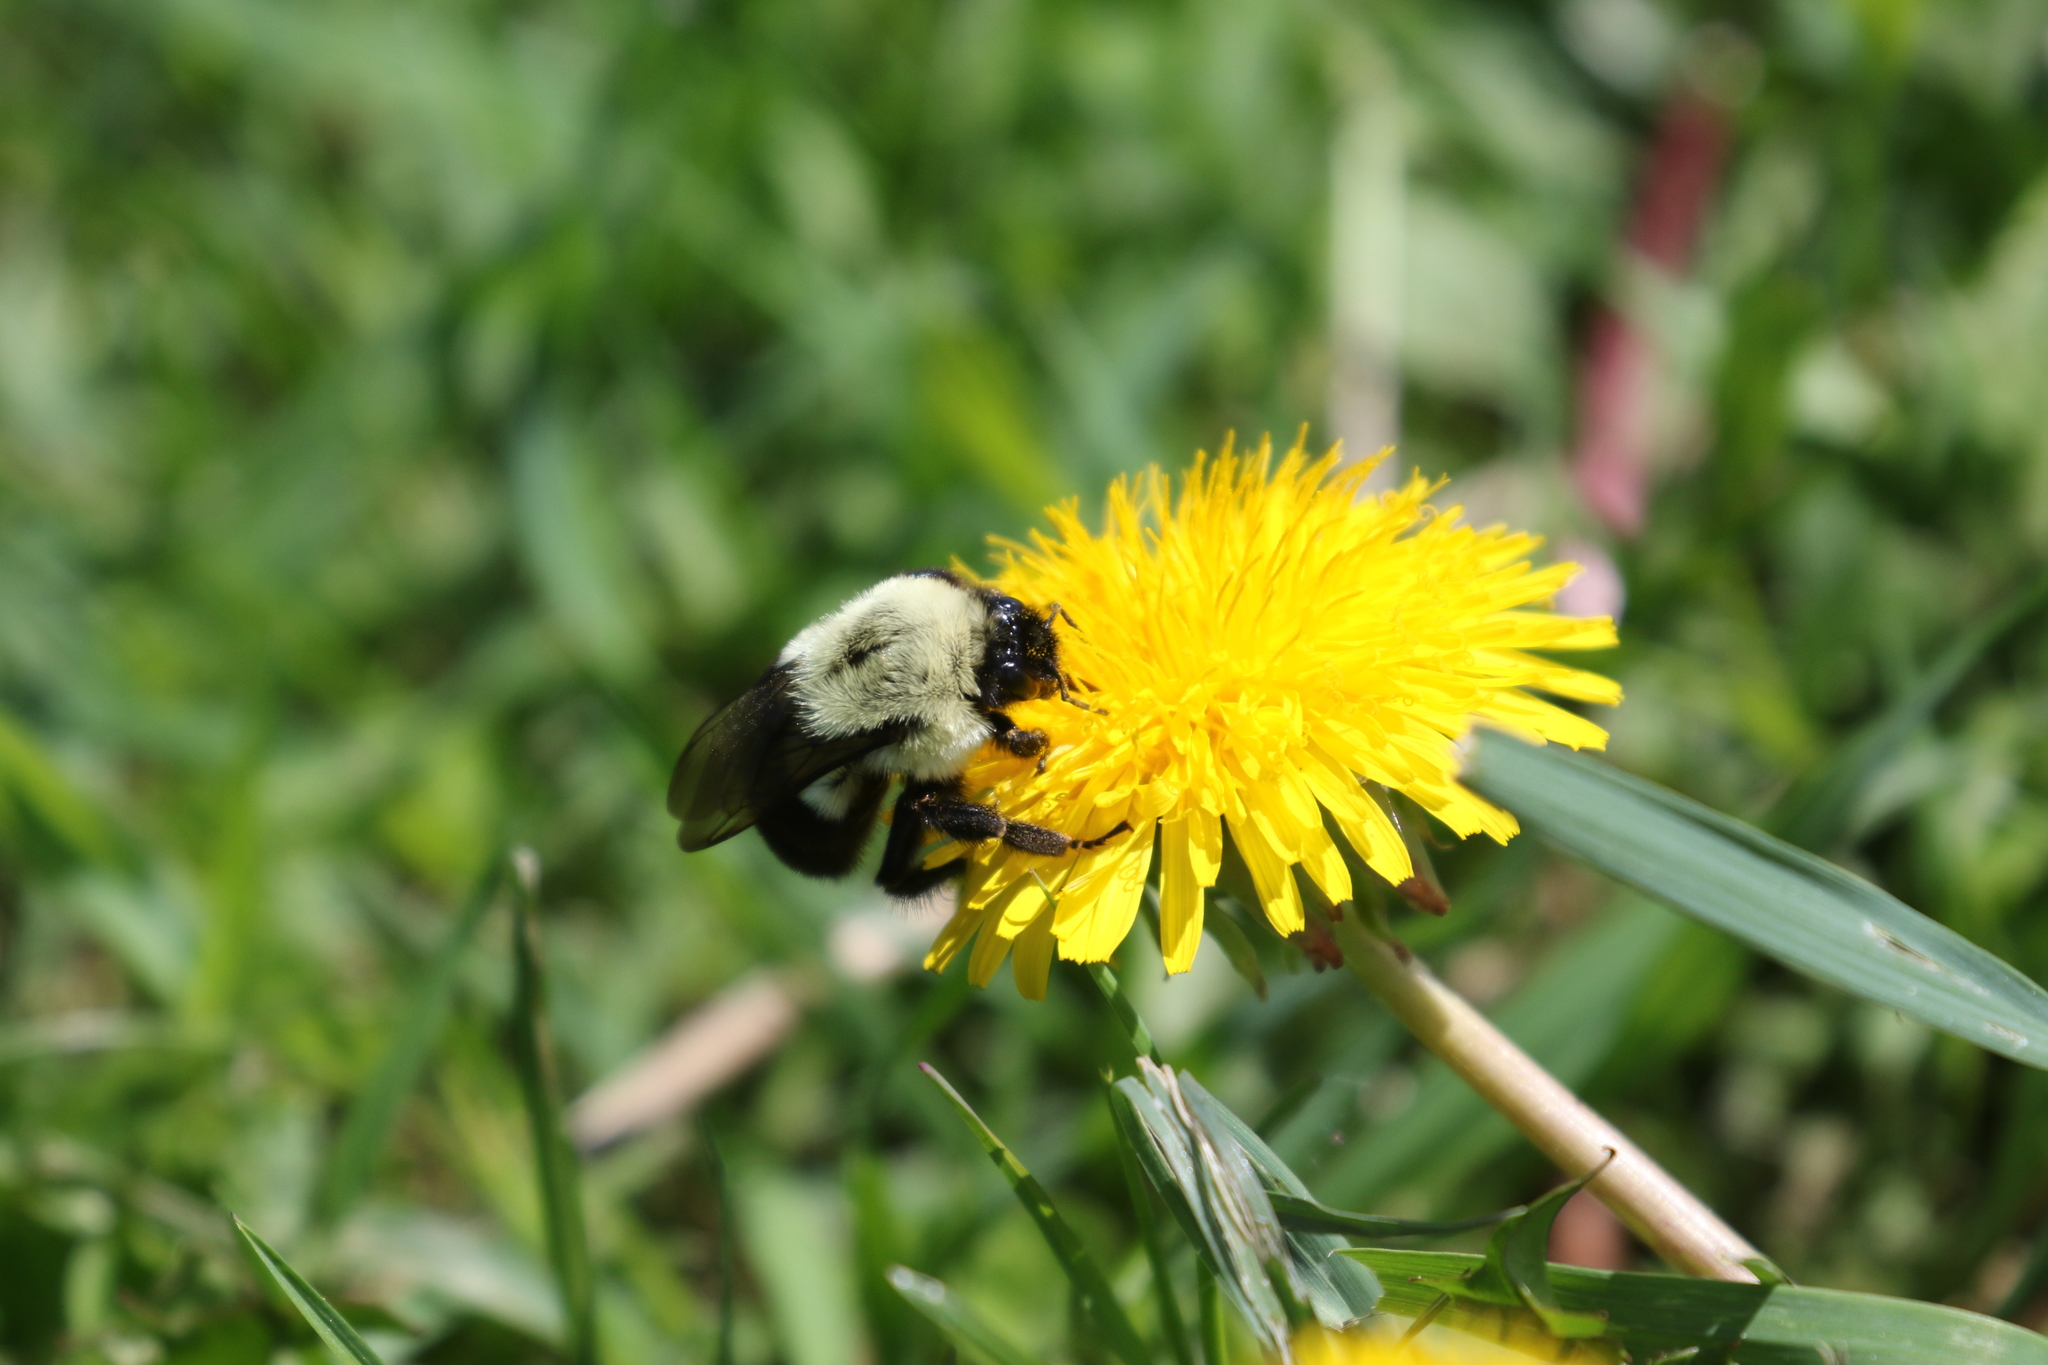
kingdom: Animalia
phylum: Arthropoda
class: Insecta
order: Hymenoptera
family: Apidae
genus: Bombus
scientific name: Bombus impatiens
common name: Common eastern bumble bee
